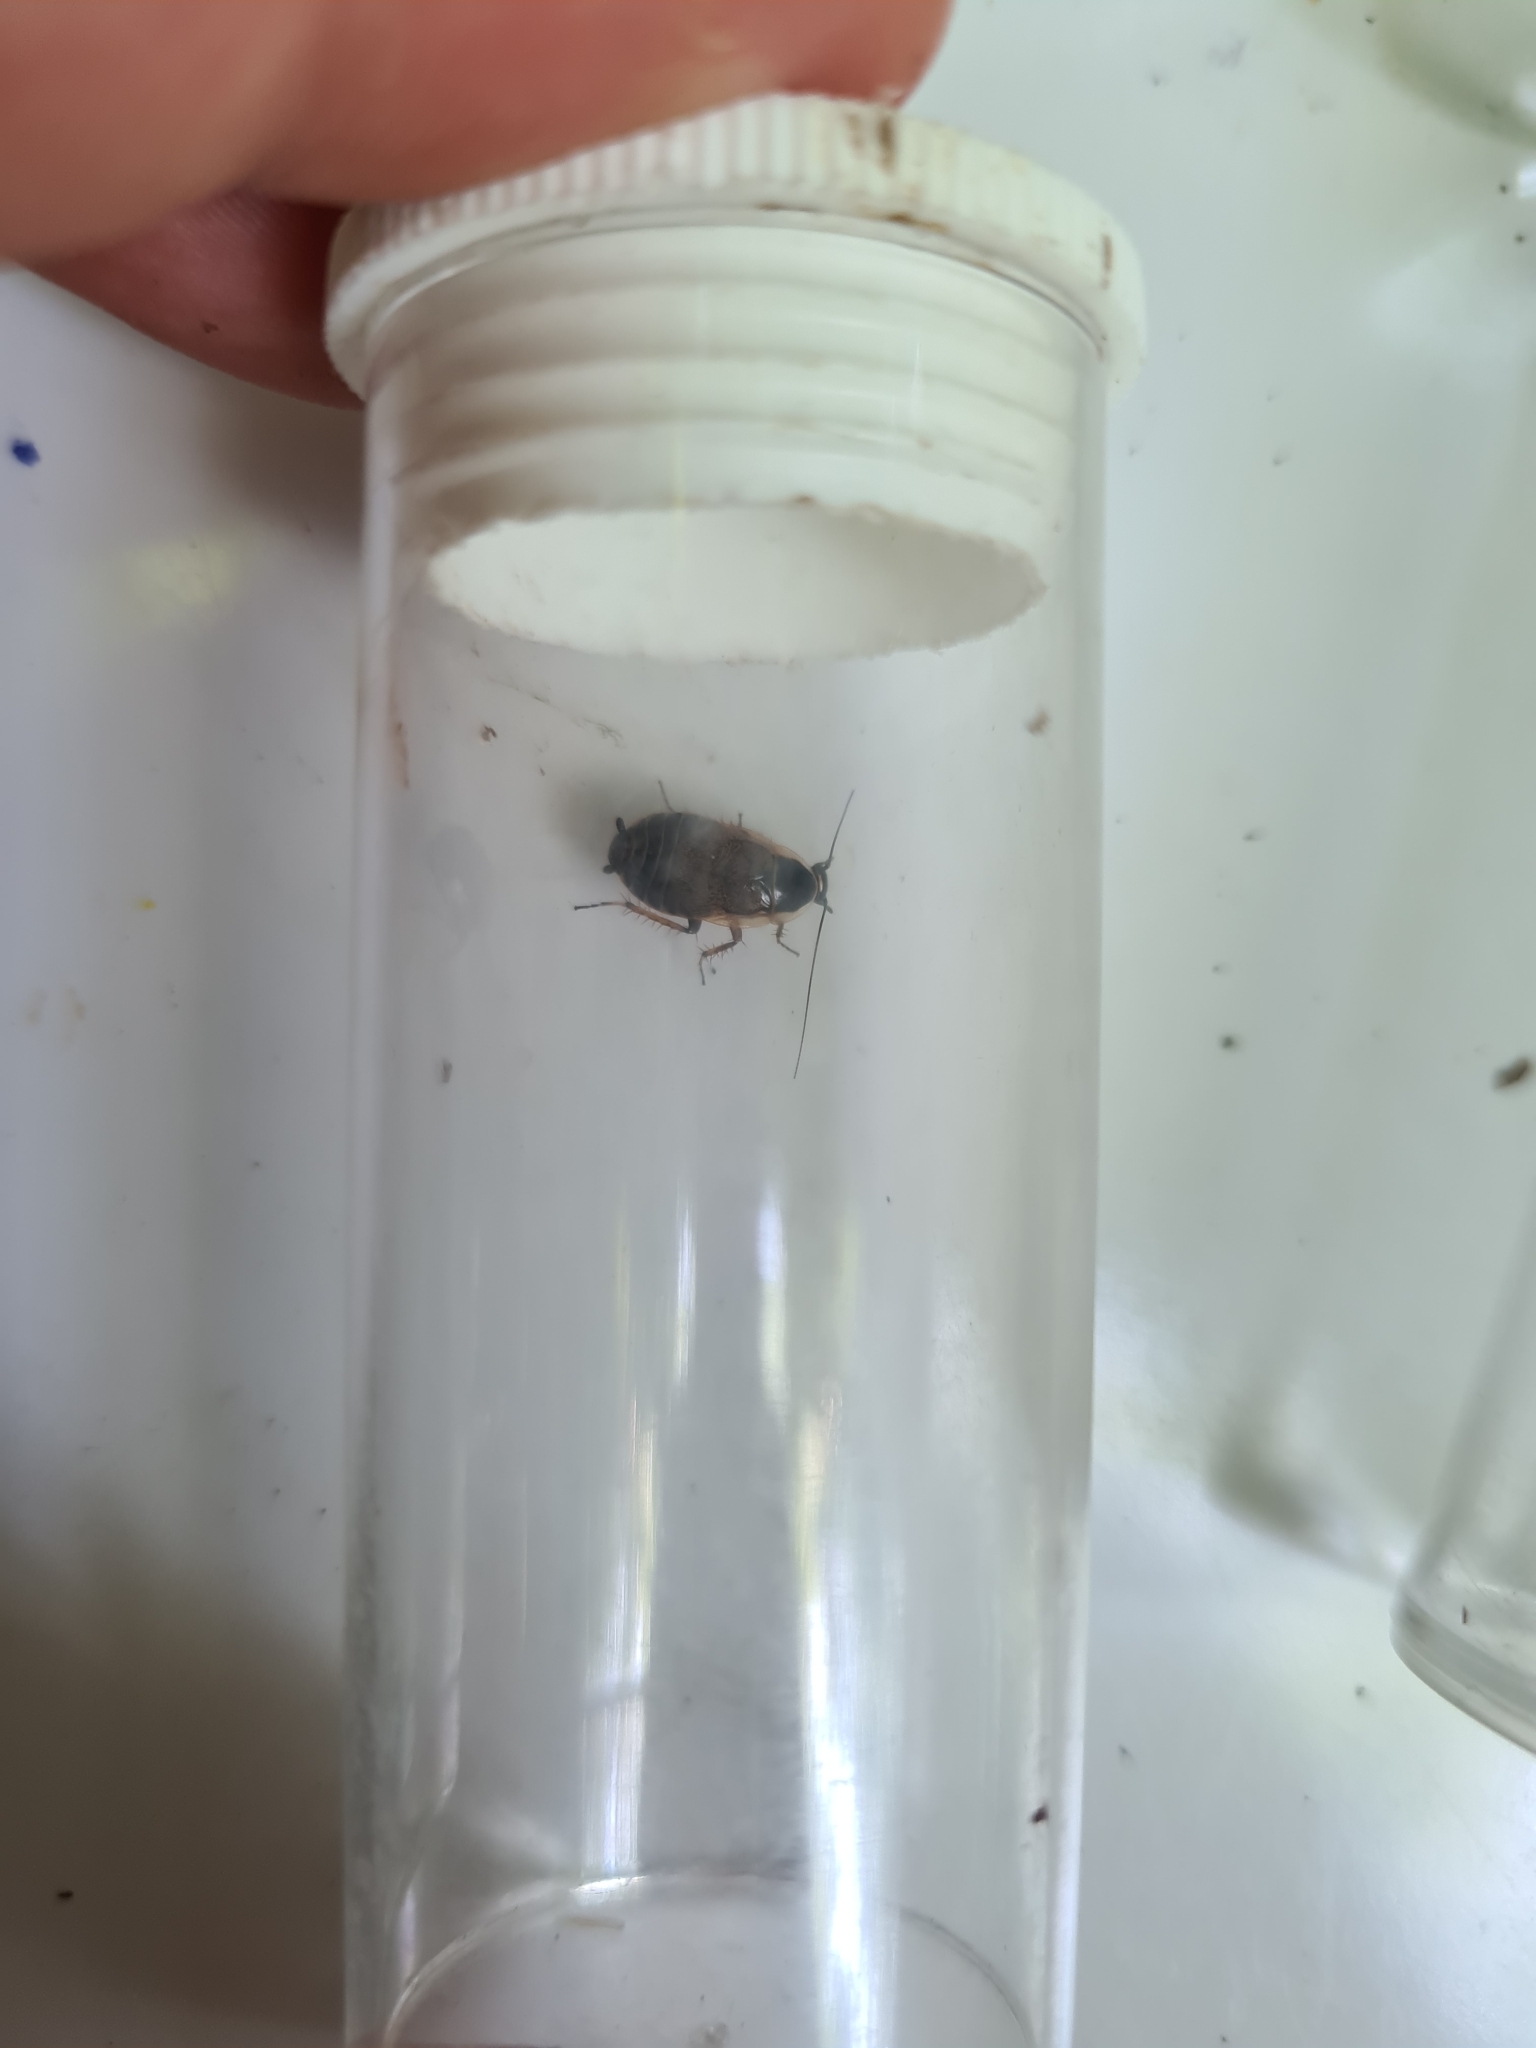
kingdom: Animalia
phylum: Arthropoda
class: Insecta
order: Blattodea
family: Ectobiidae
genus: Ectobius
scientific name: Ectobius sylvestris
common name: Forest cockroach
